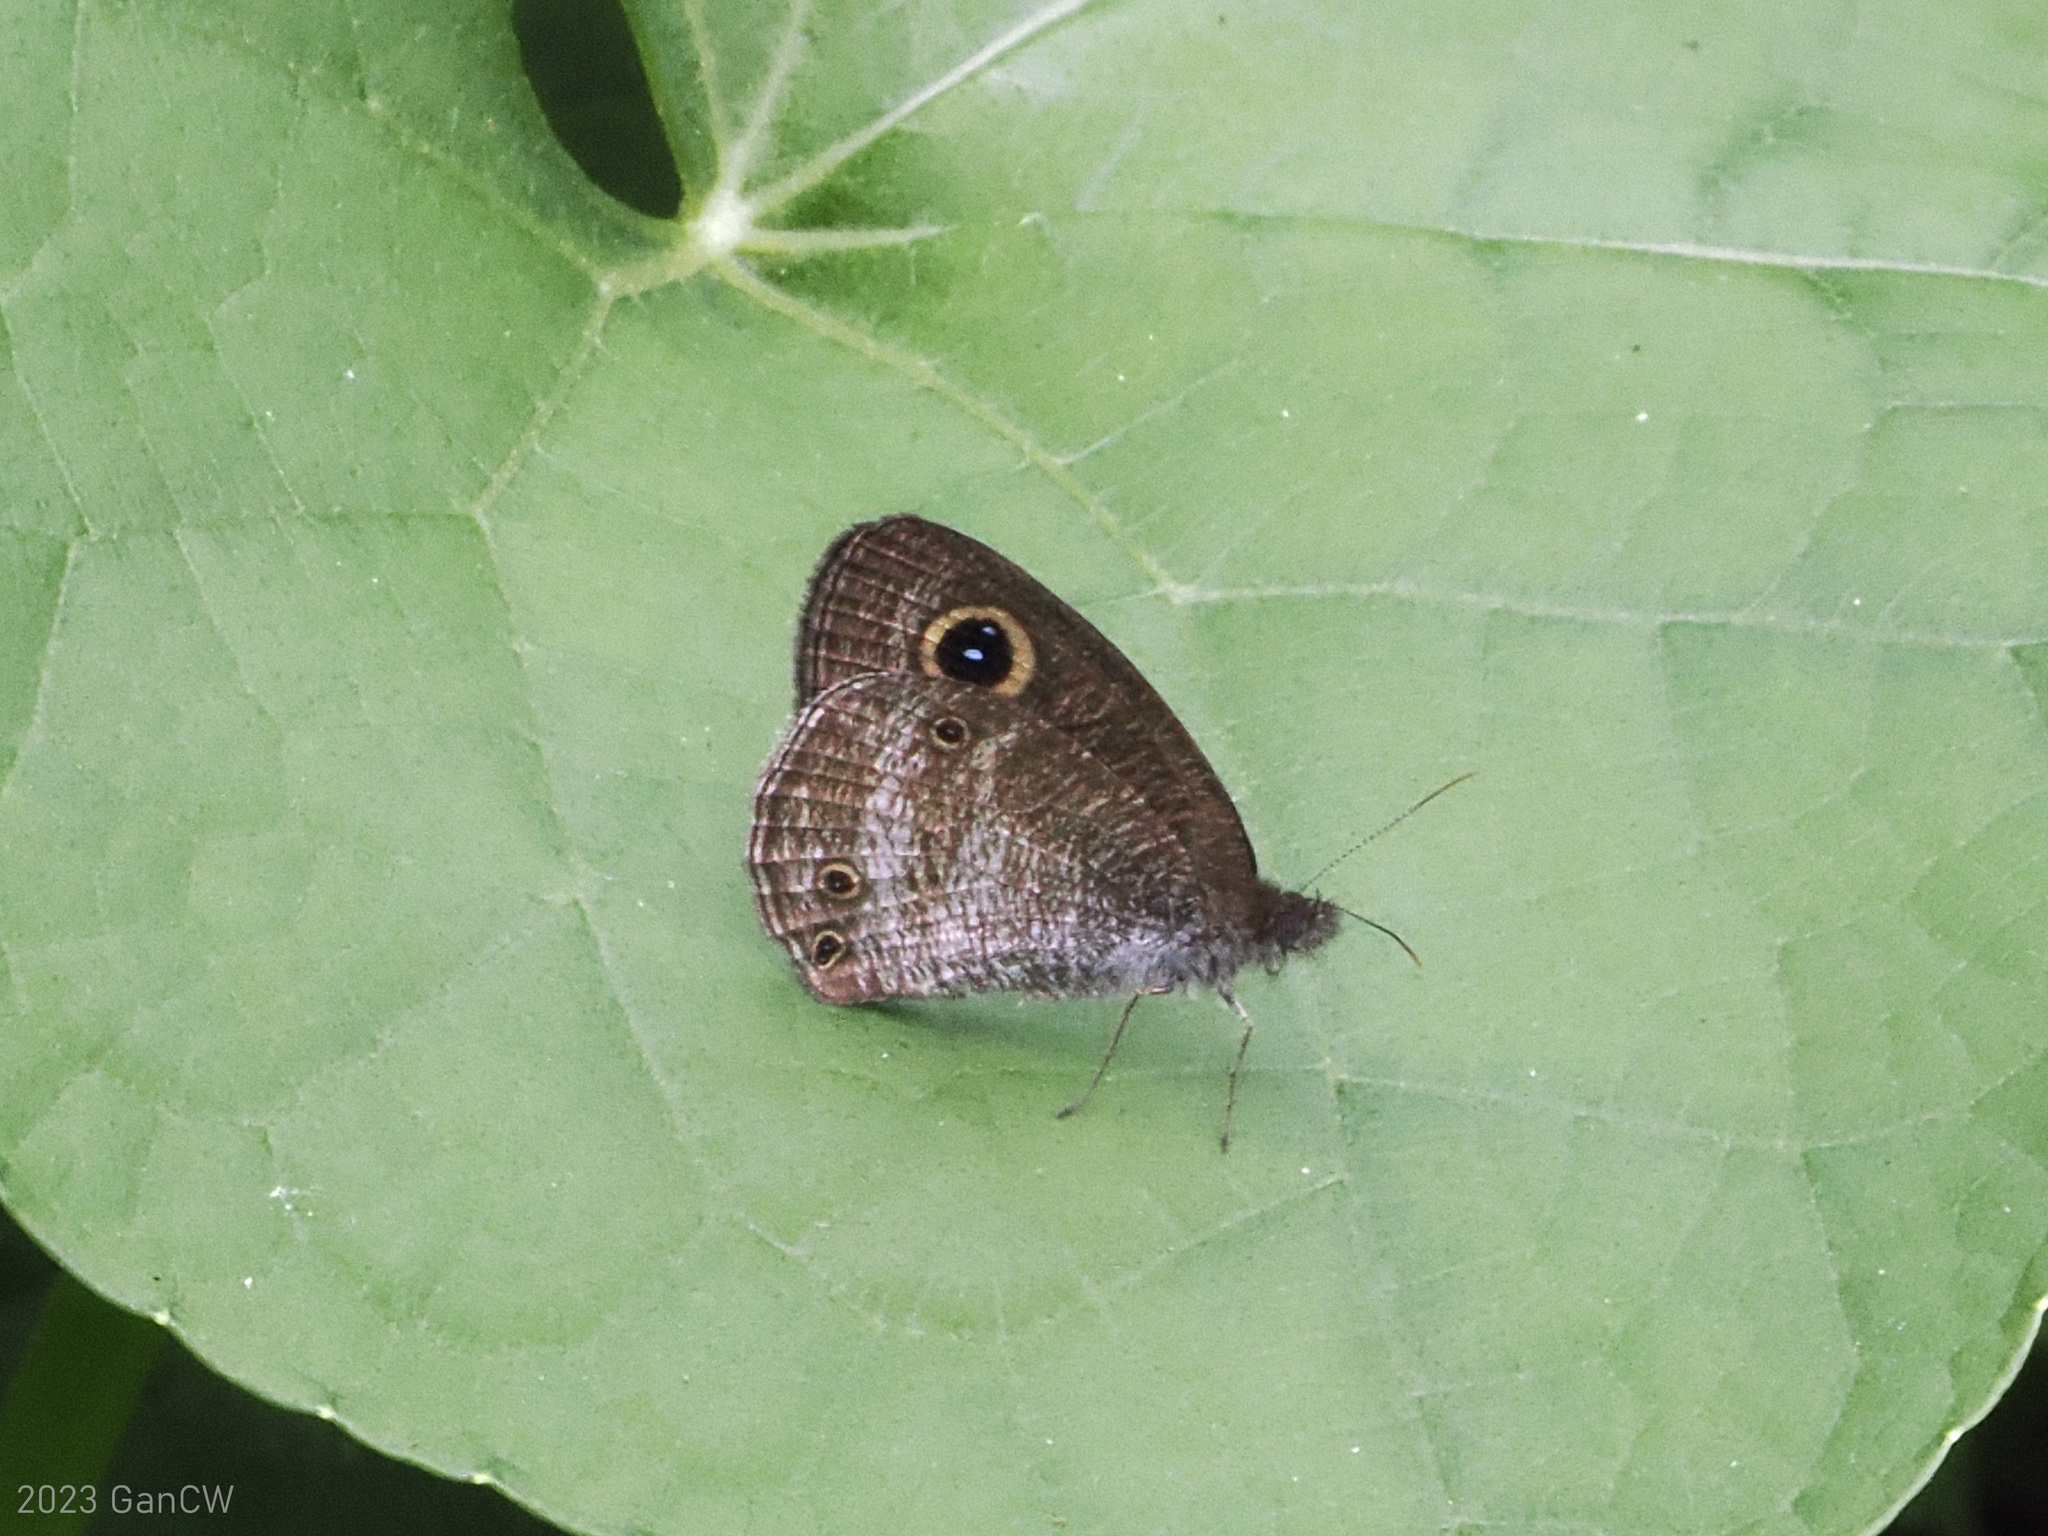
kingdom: Animalia
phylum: Arthropoda
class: Insecta
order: Lepidoptera
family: Nymphalidae
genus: Ypthima
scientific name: Ypthima pandocus
